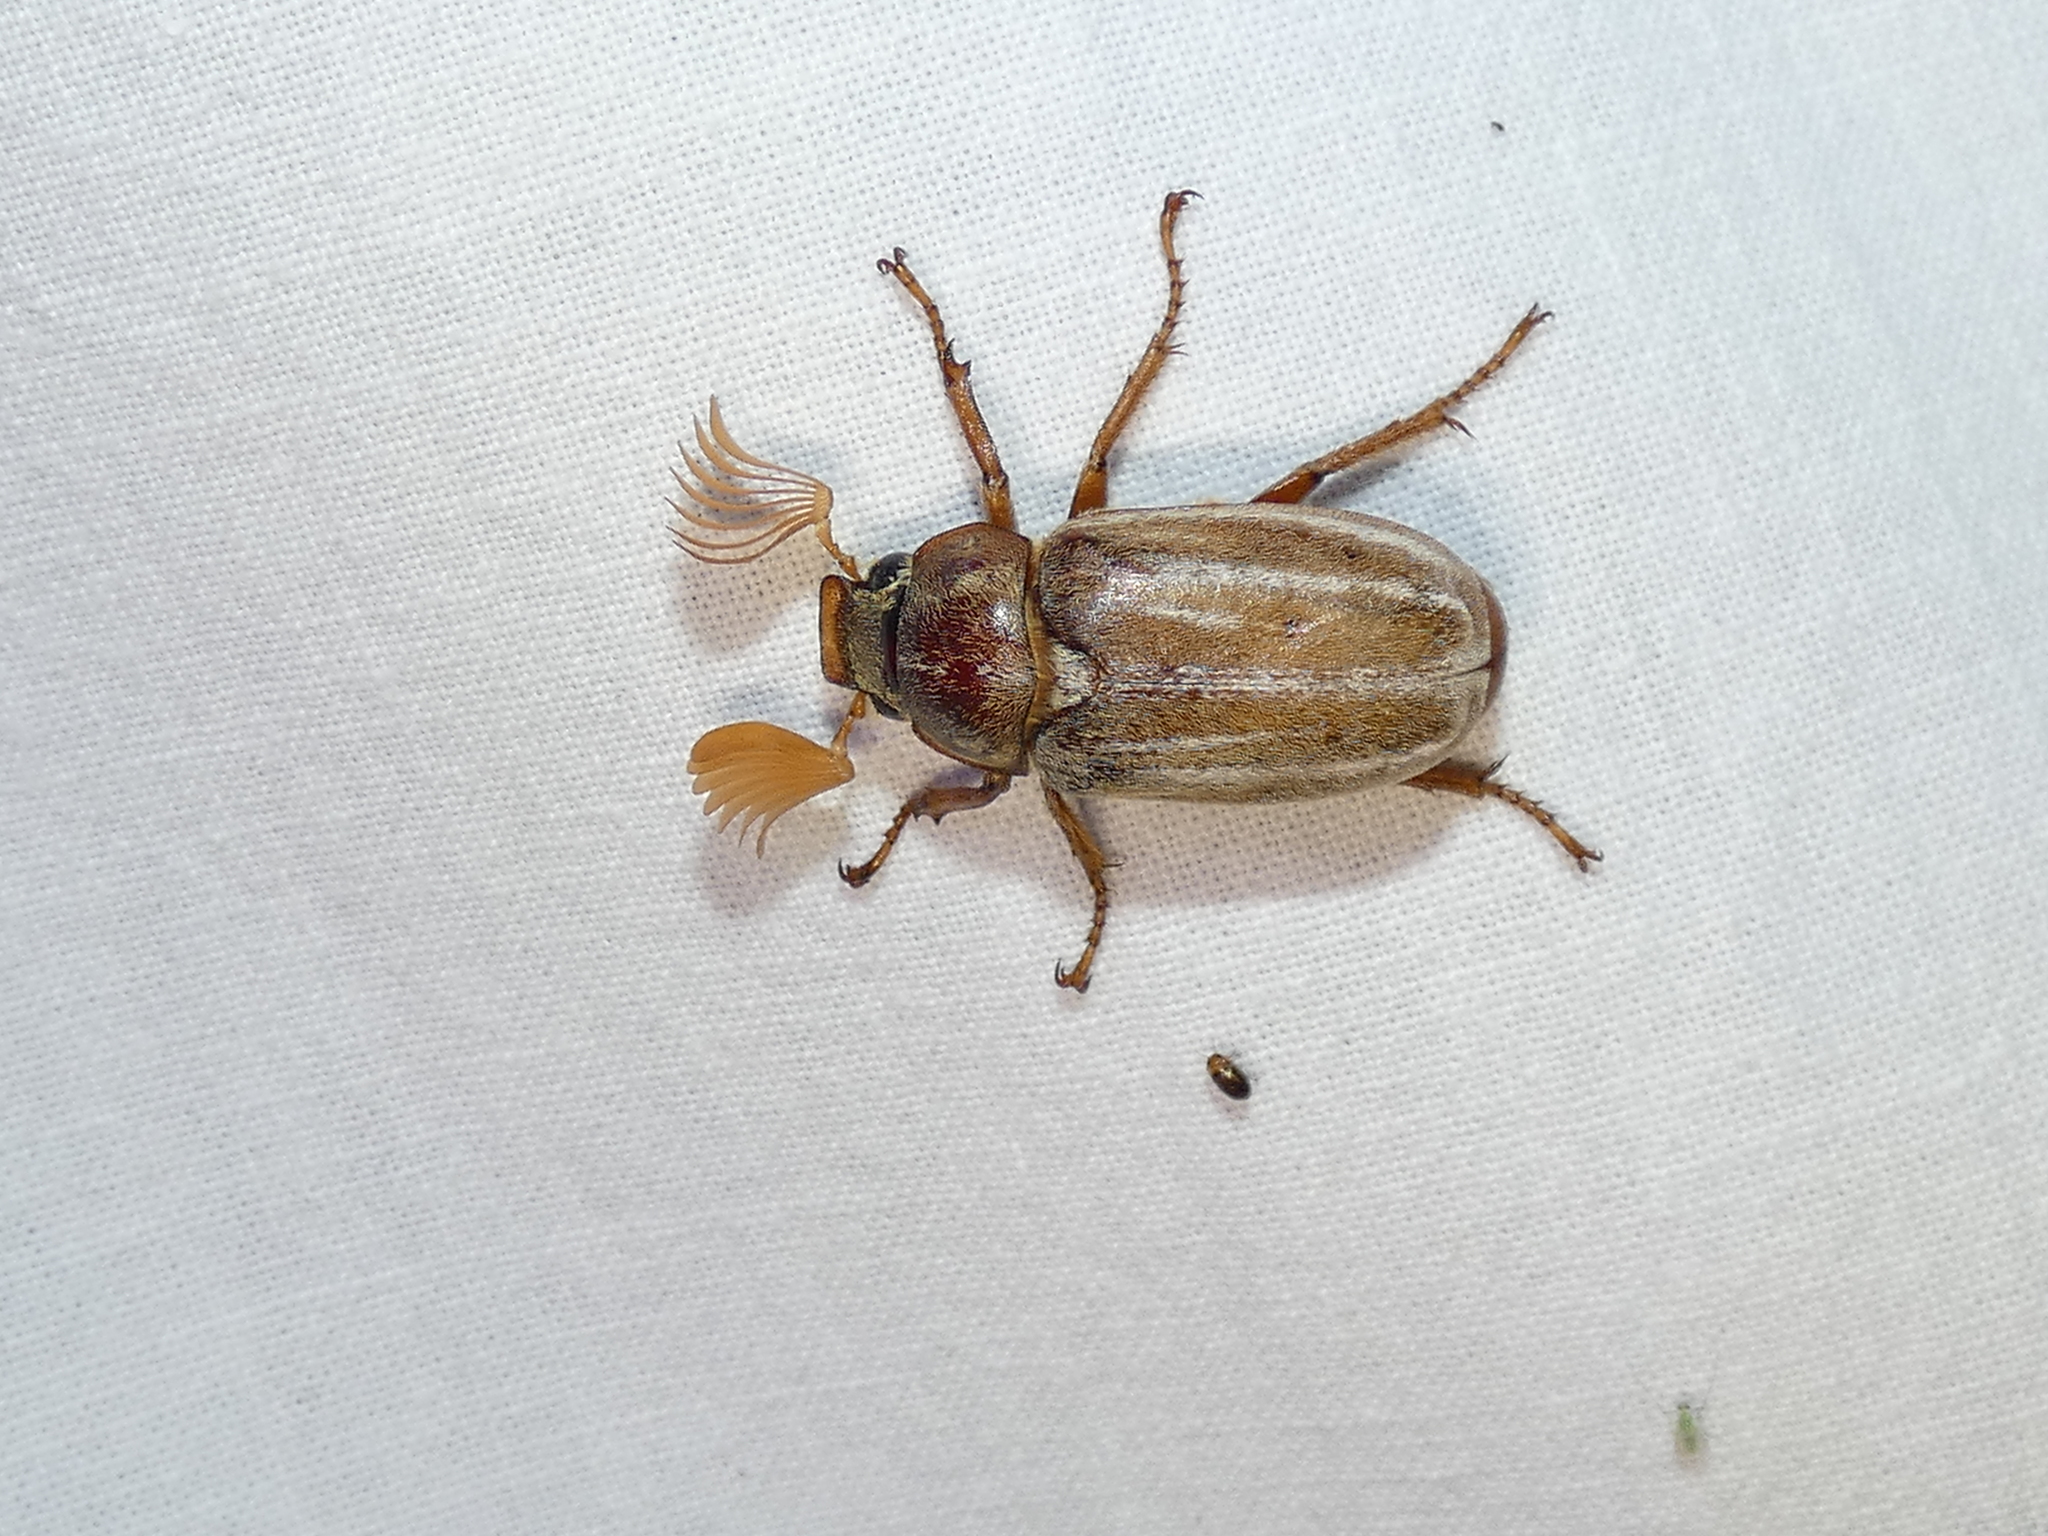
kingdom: Animalia
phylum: Arthropoda
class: Insecta
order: Coleoptera
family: Dytiscidae
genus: Bidessini
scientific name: Bidessini
